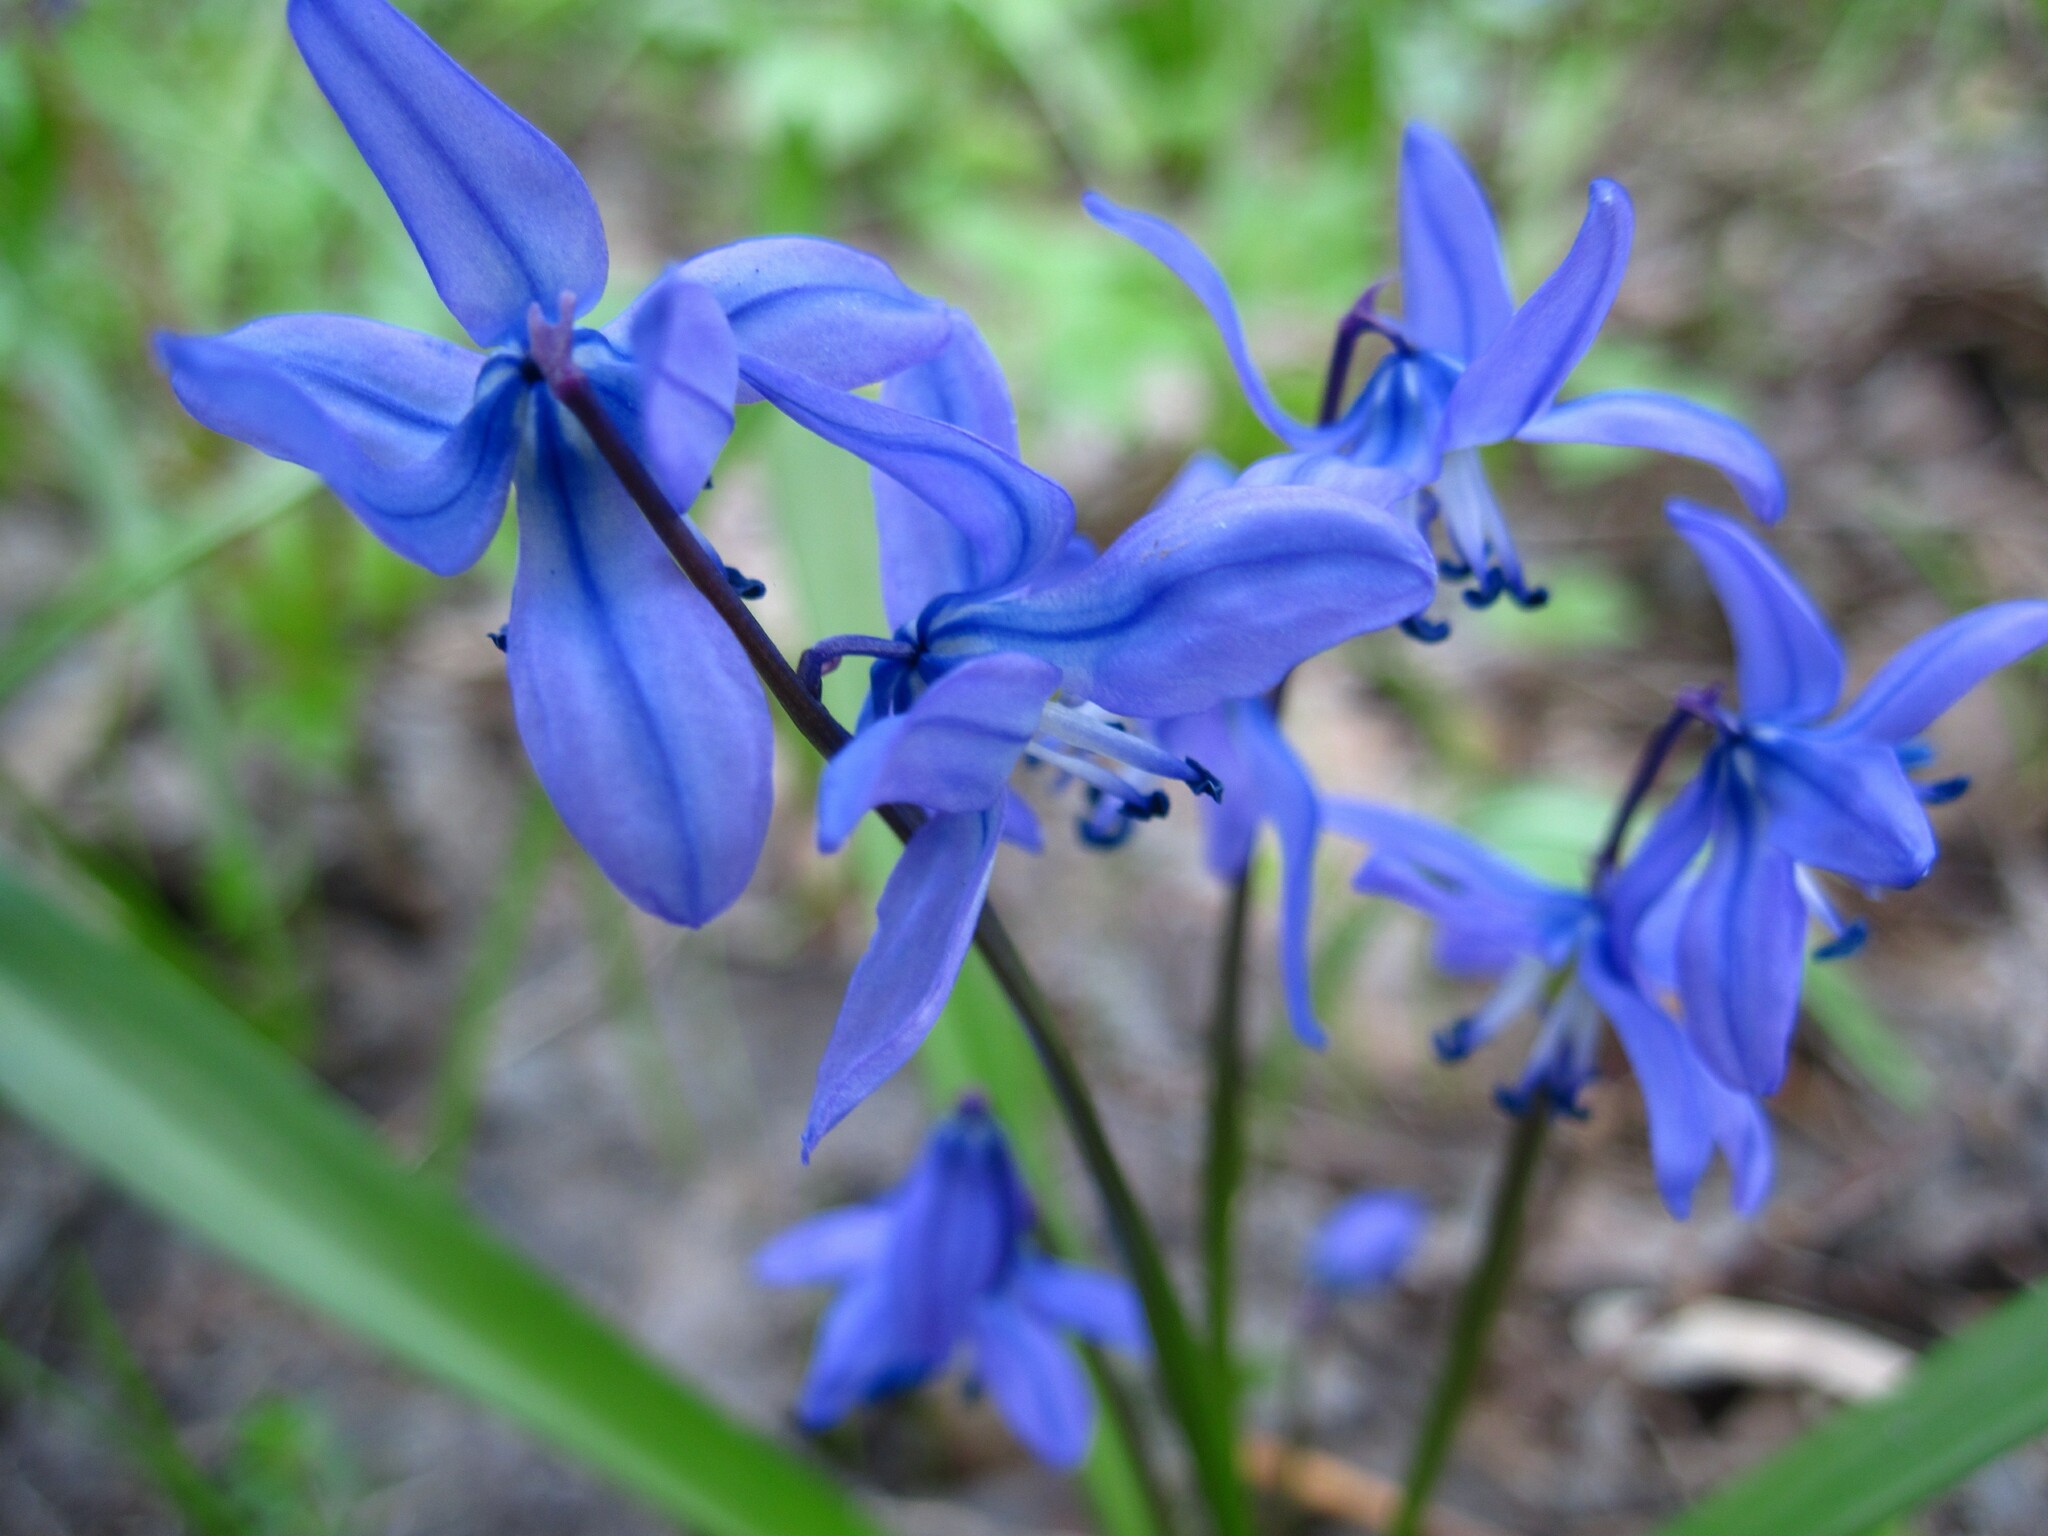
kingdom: Plantae
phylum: Tracheophyta
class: Liliopsida
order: Asparagales
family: Asparagaceae
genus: Scilla
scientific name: Scilla siberica
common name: Siberian squill
